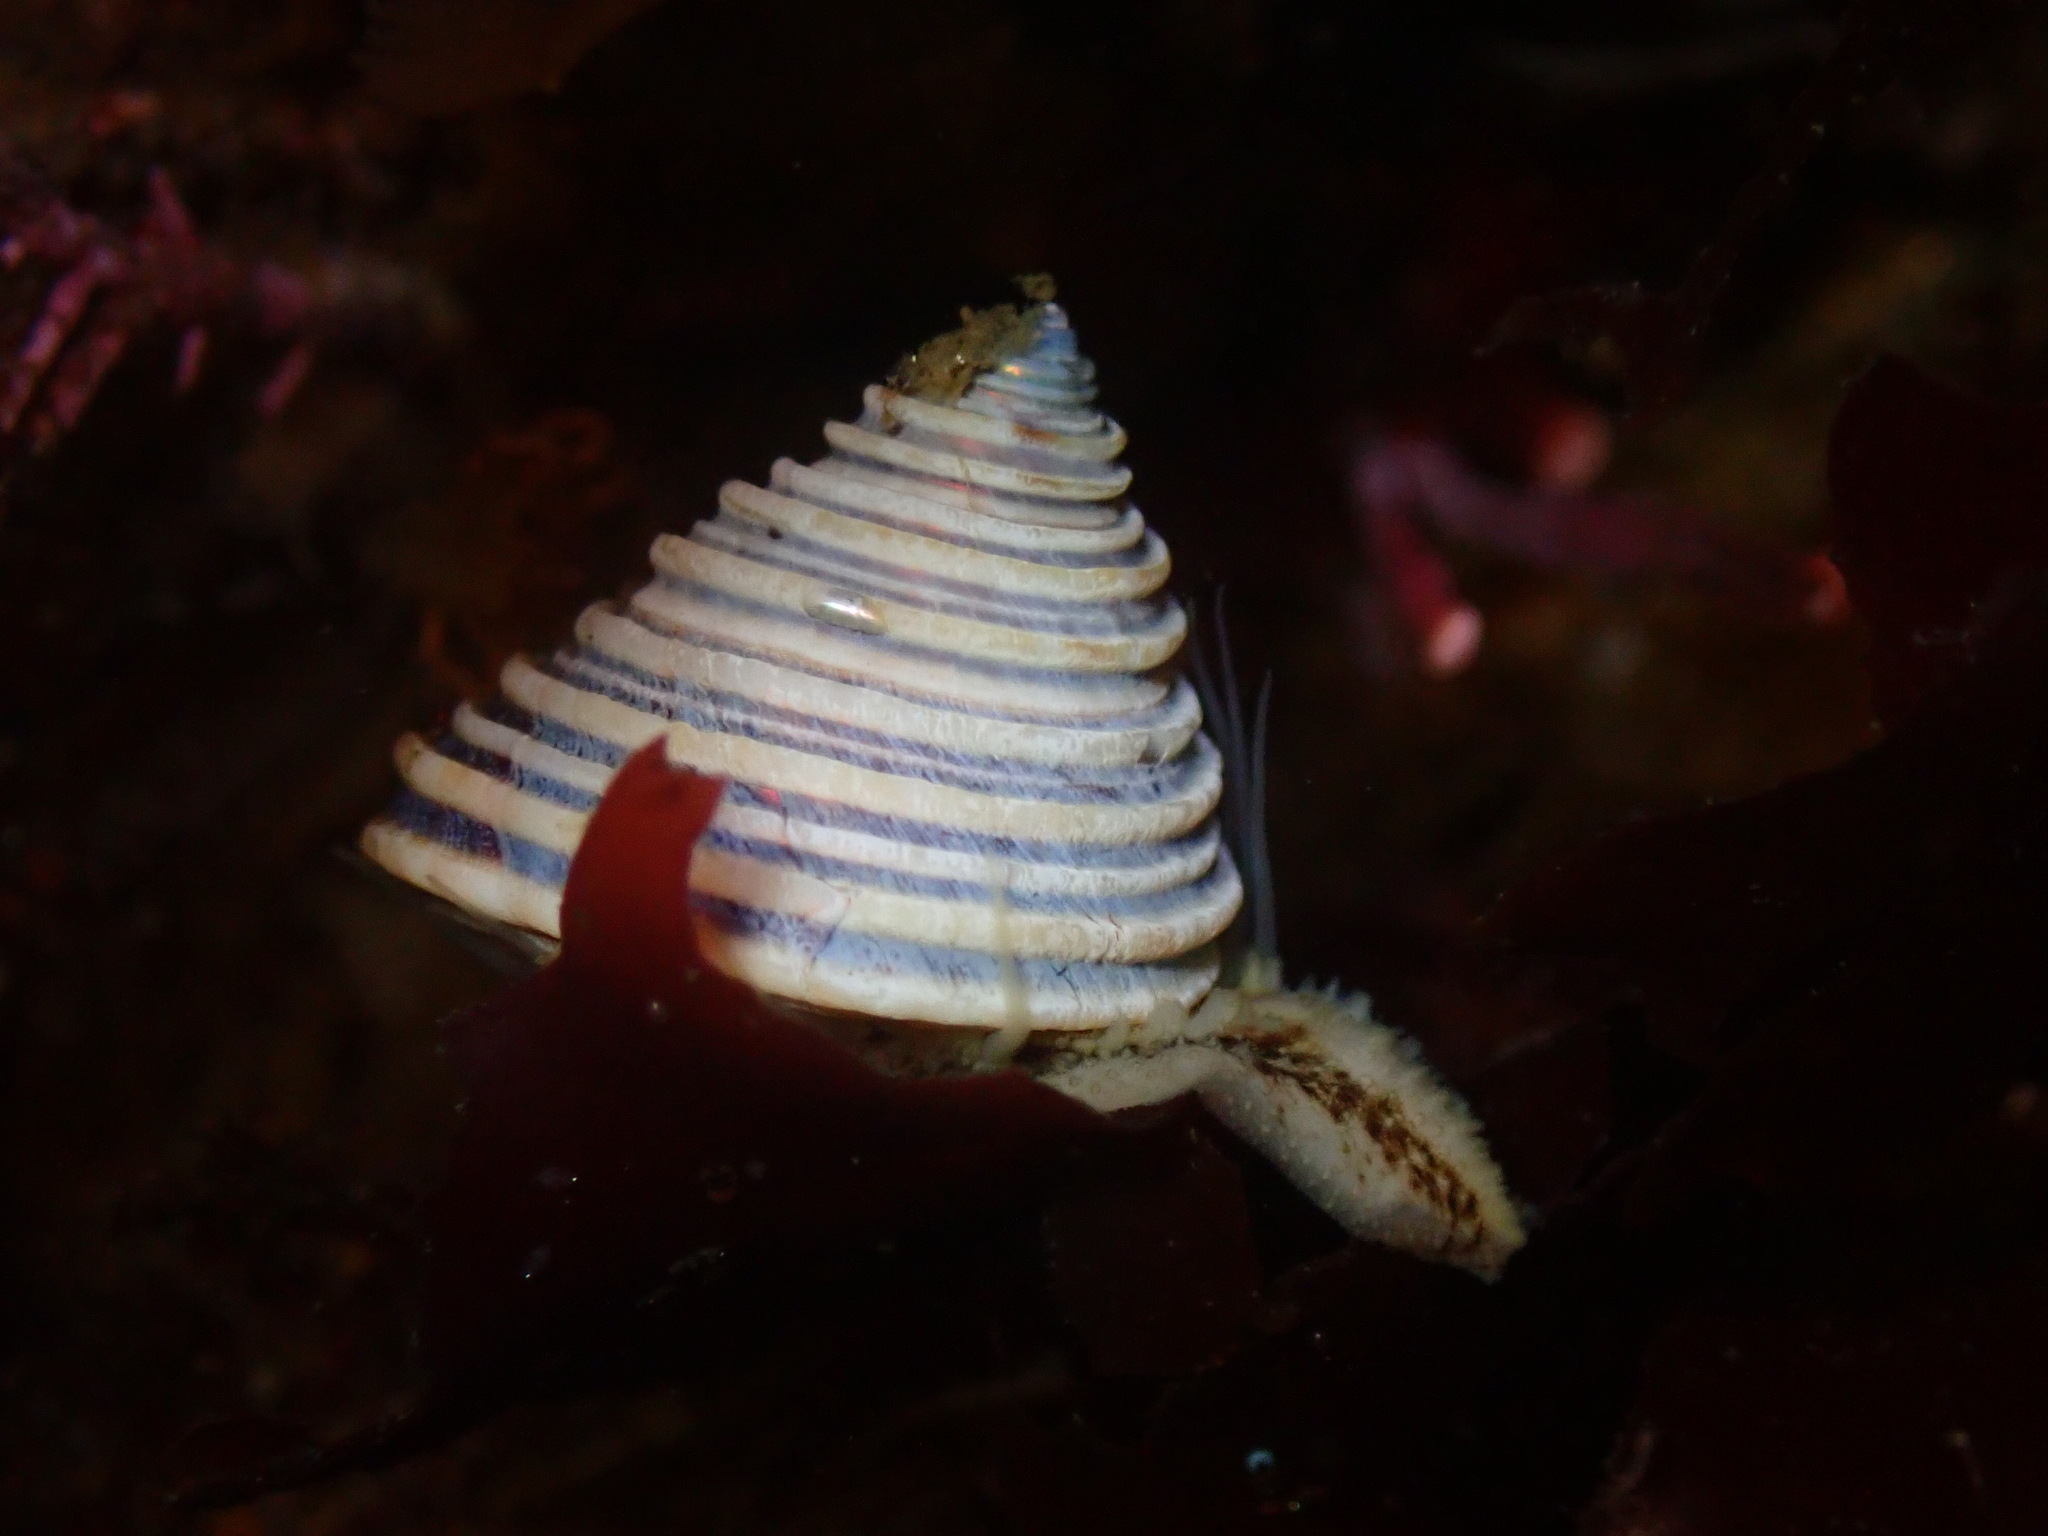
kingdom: Animalia
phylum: Mollusca
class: Gastropoda
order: Trochida
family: Calliostomatidae
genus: Calliostoma
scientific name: Calliostoma canaliculatum
